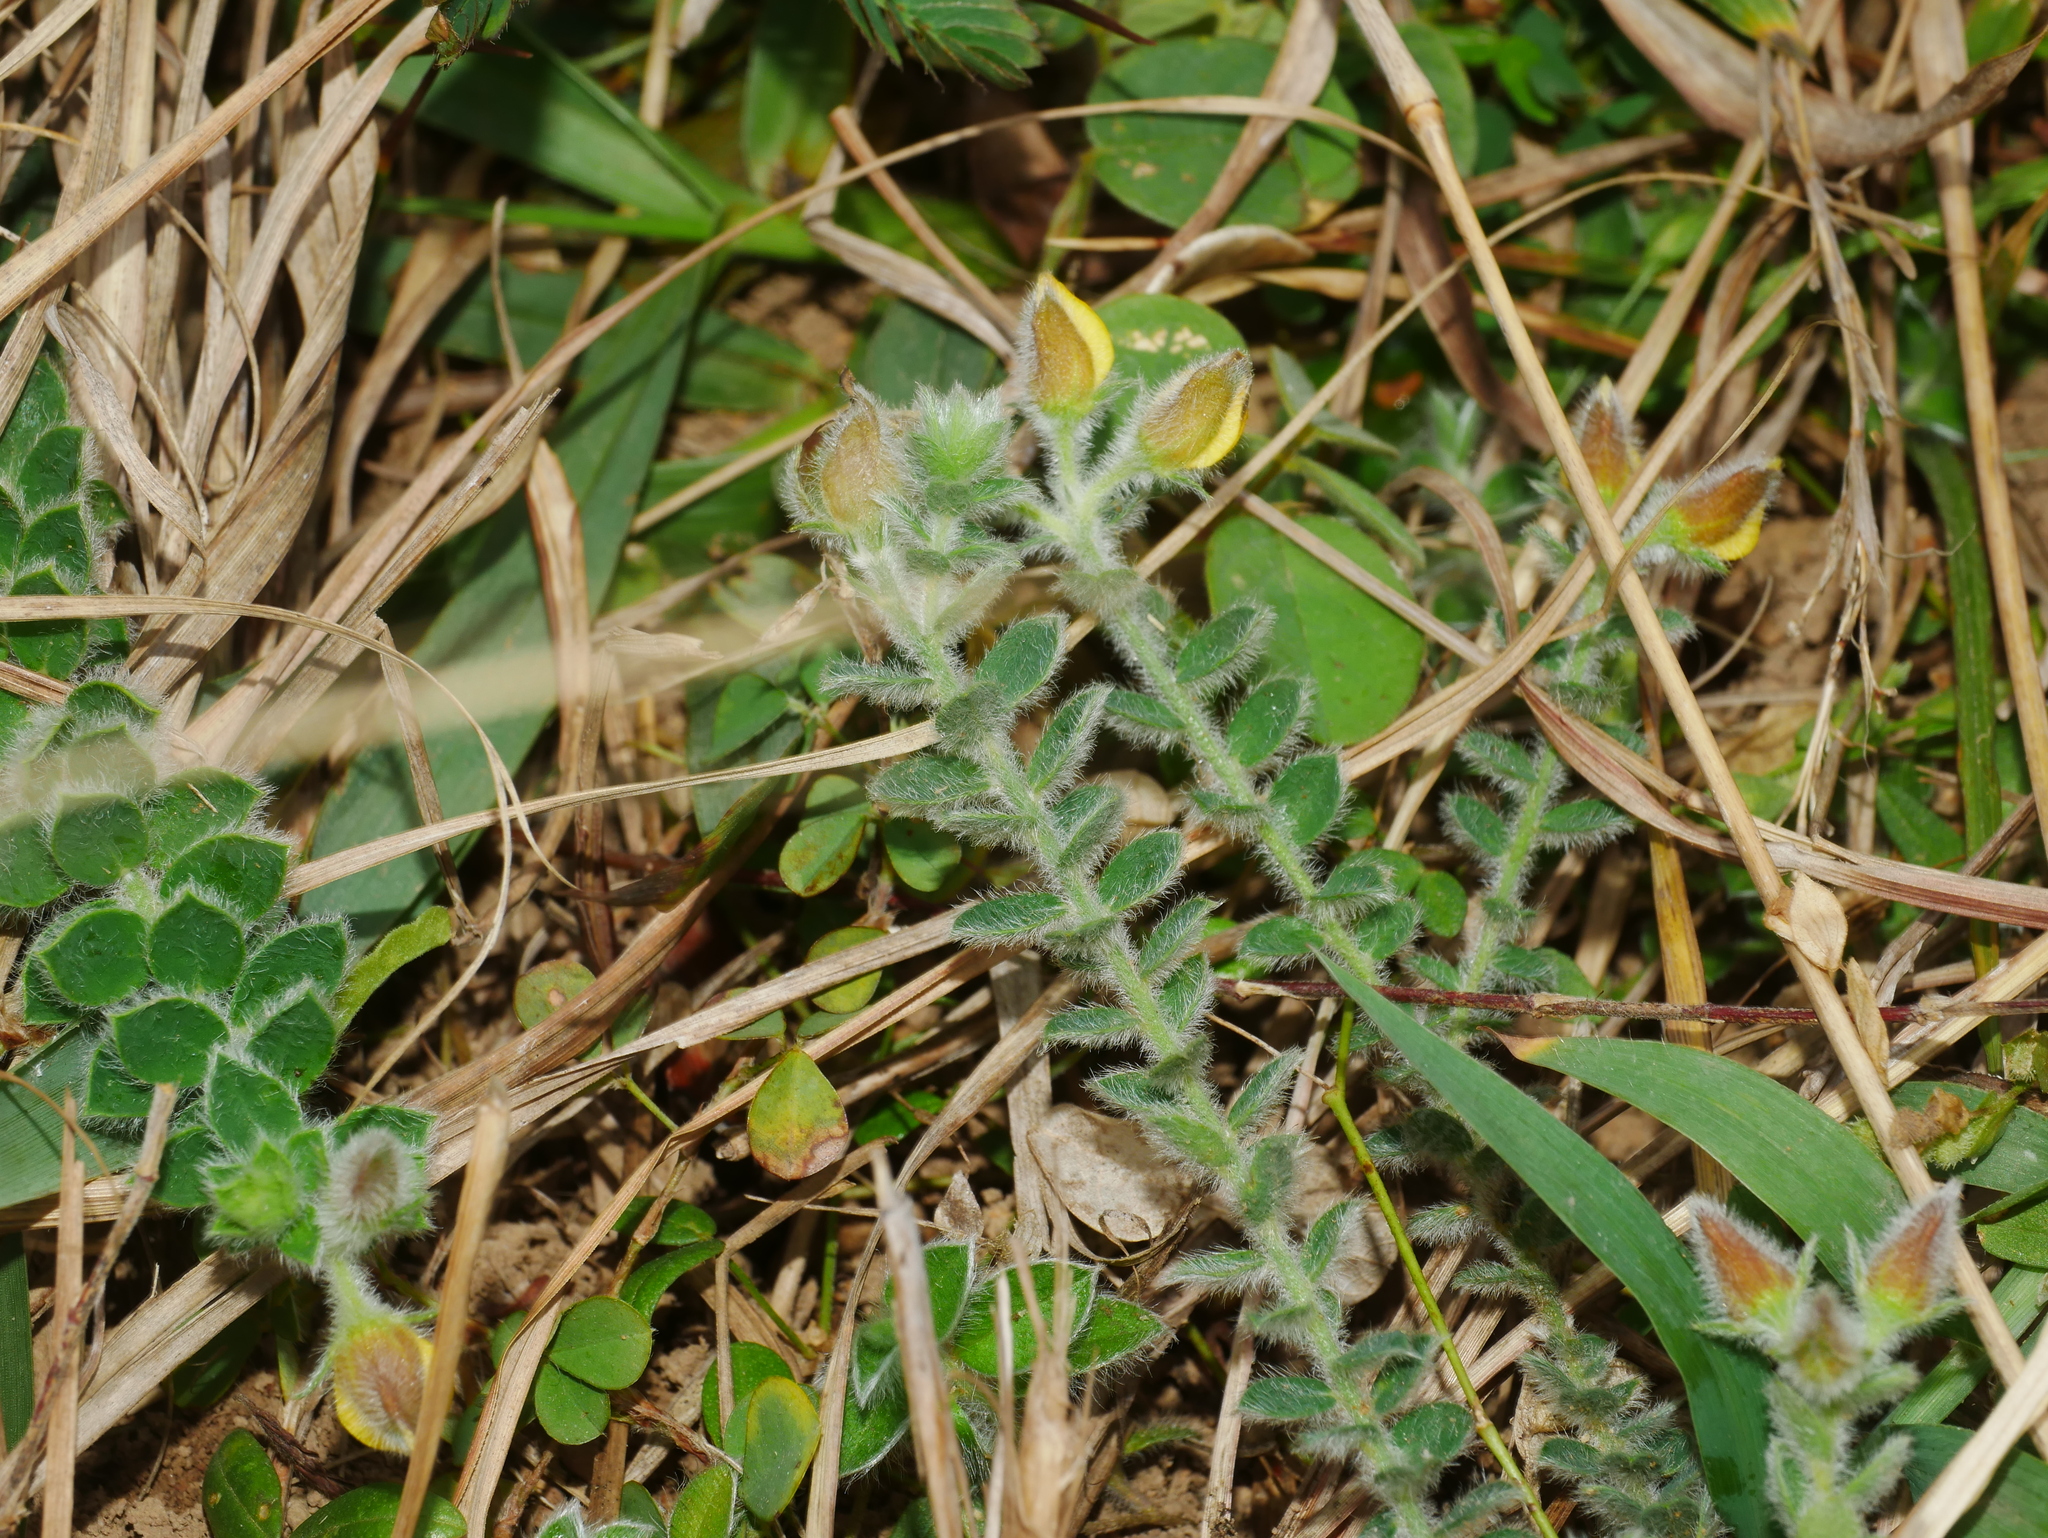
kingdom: Plantae
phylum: Tracheophyta
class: Magnoliopsida
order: Fabales
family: Fabaceae
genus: Crotalaria
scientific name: Crotalaria similis
